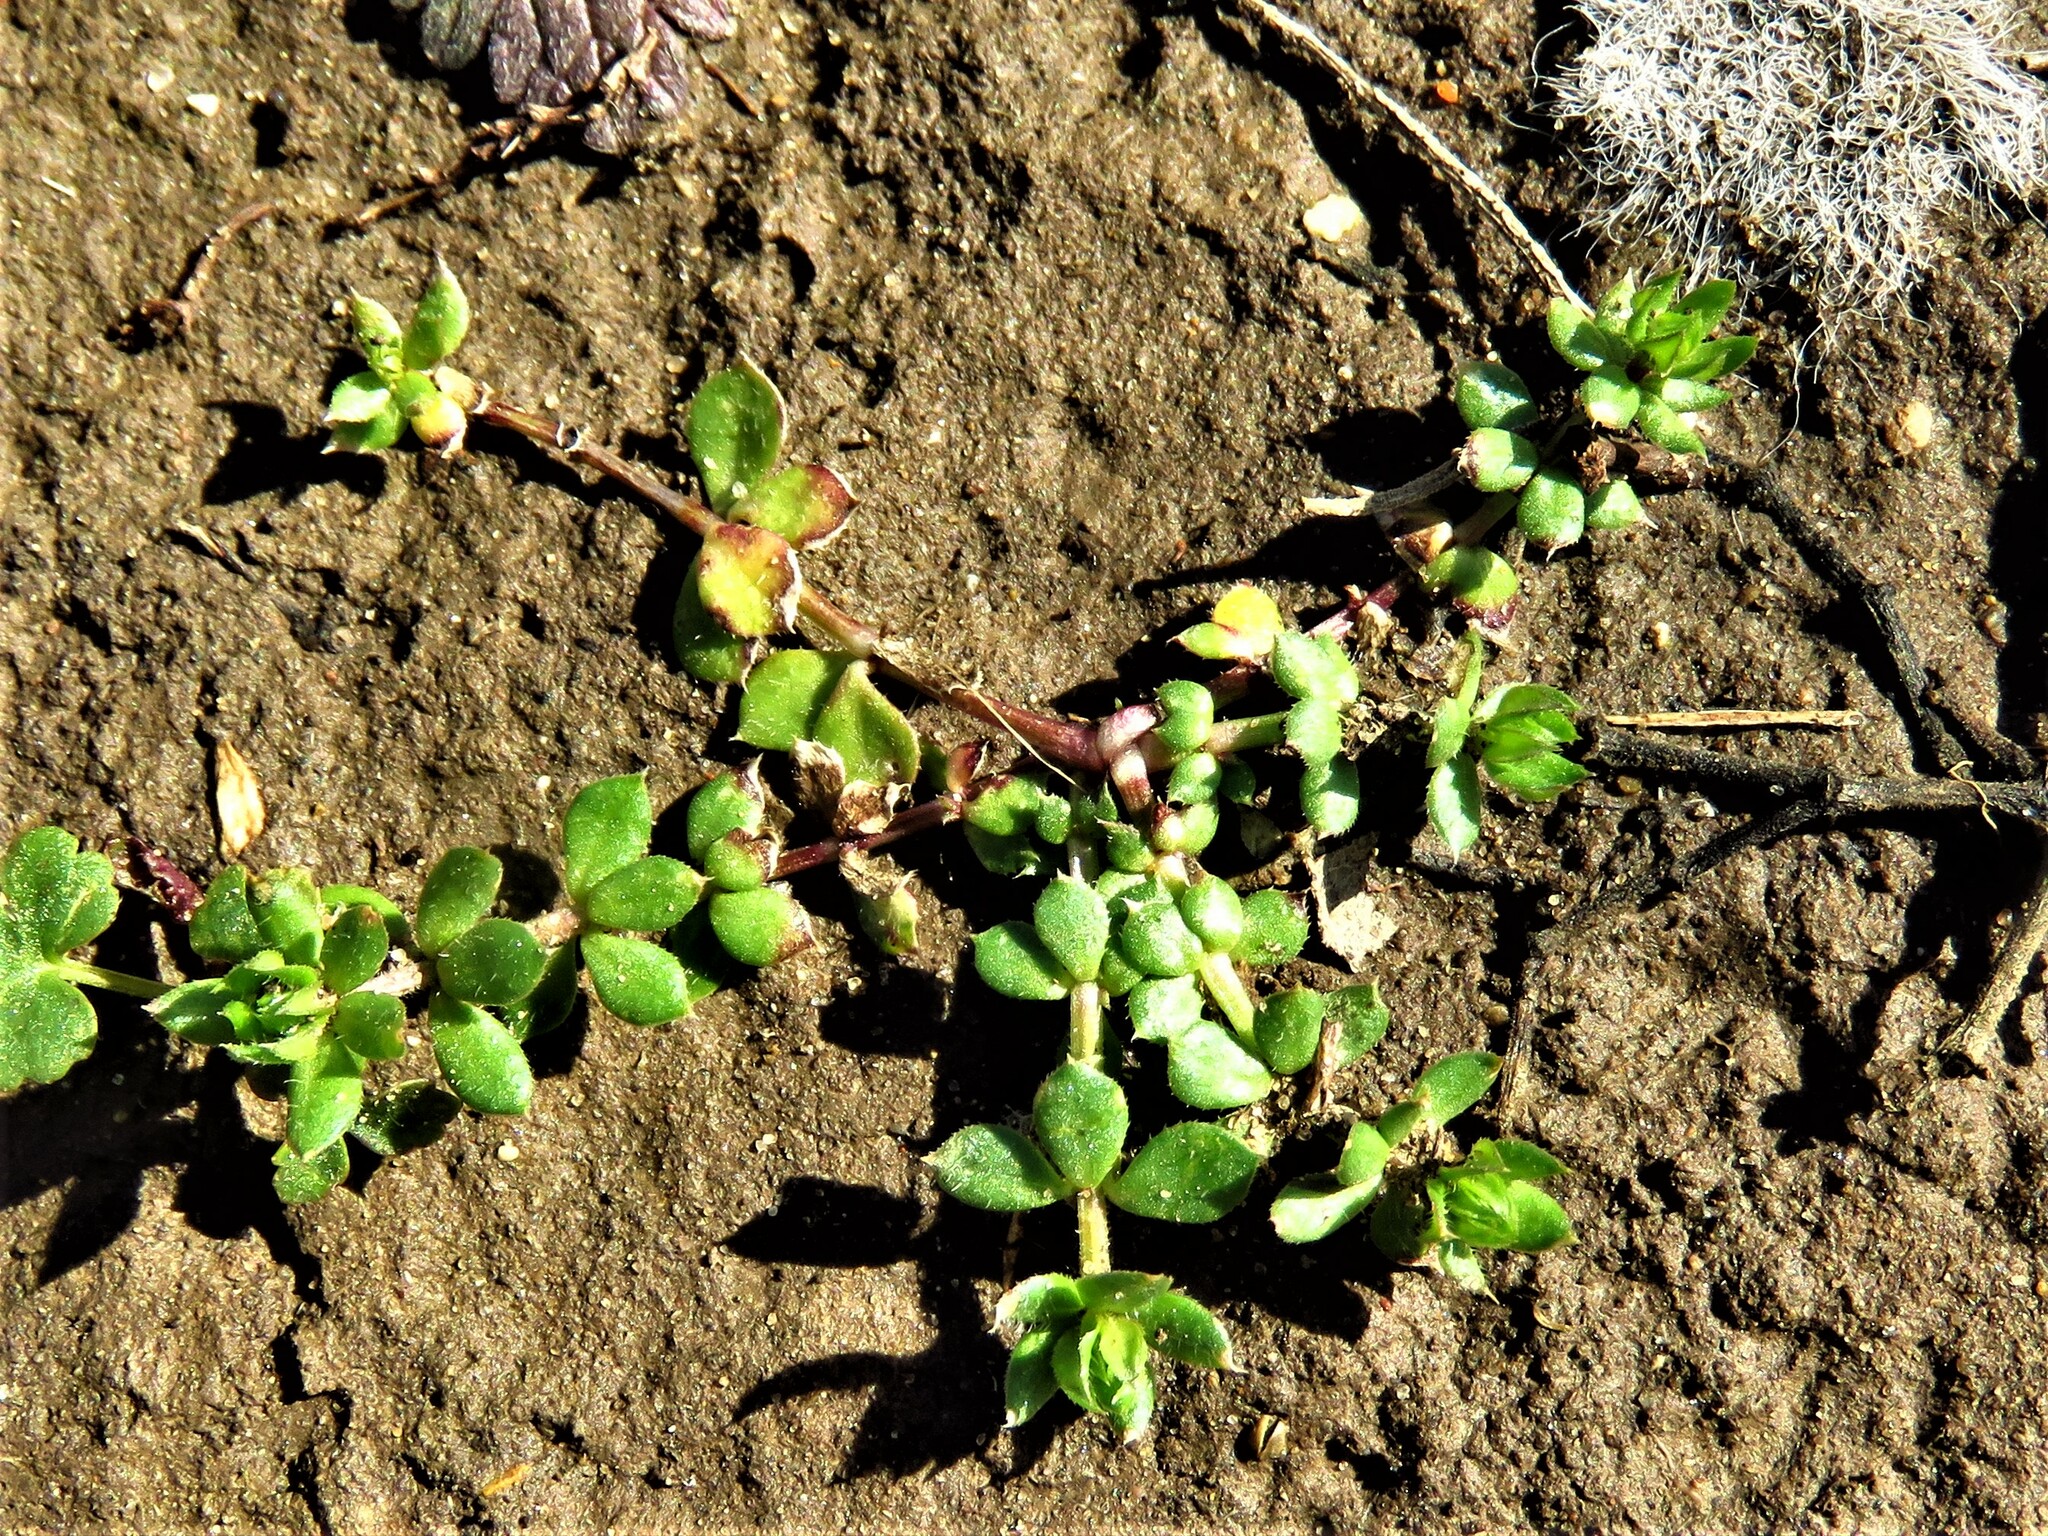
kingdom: Plantae
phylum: Tracheophyta
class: Magnoliopsida
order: Gentianales
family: Rubiaceae
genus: Sherardia
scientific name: Sherardia arvensis
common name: Field madder
